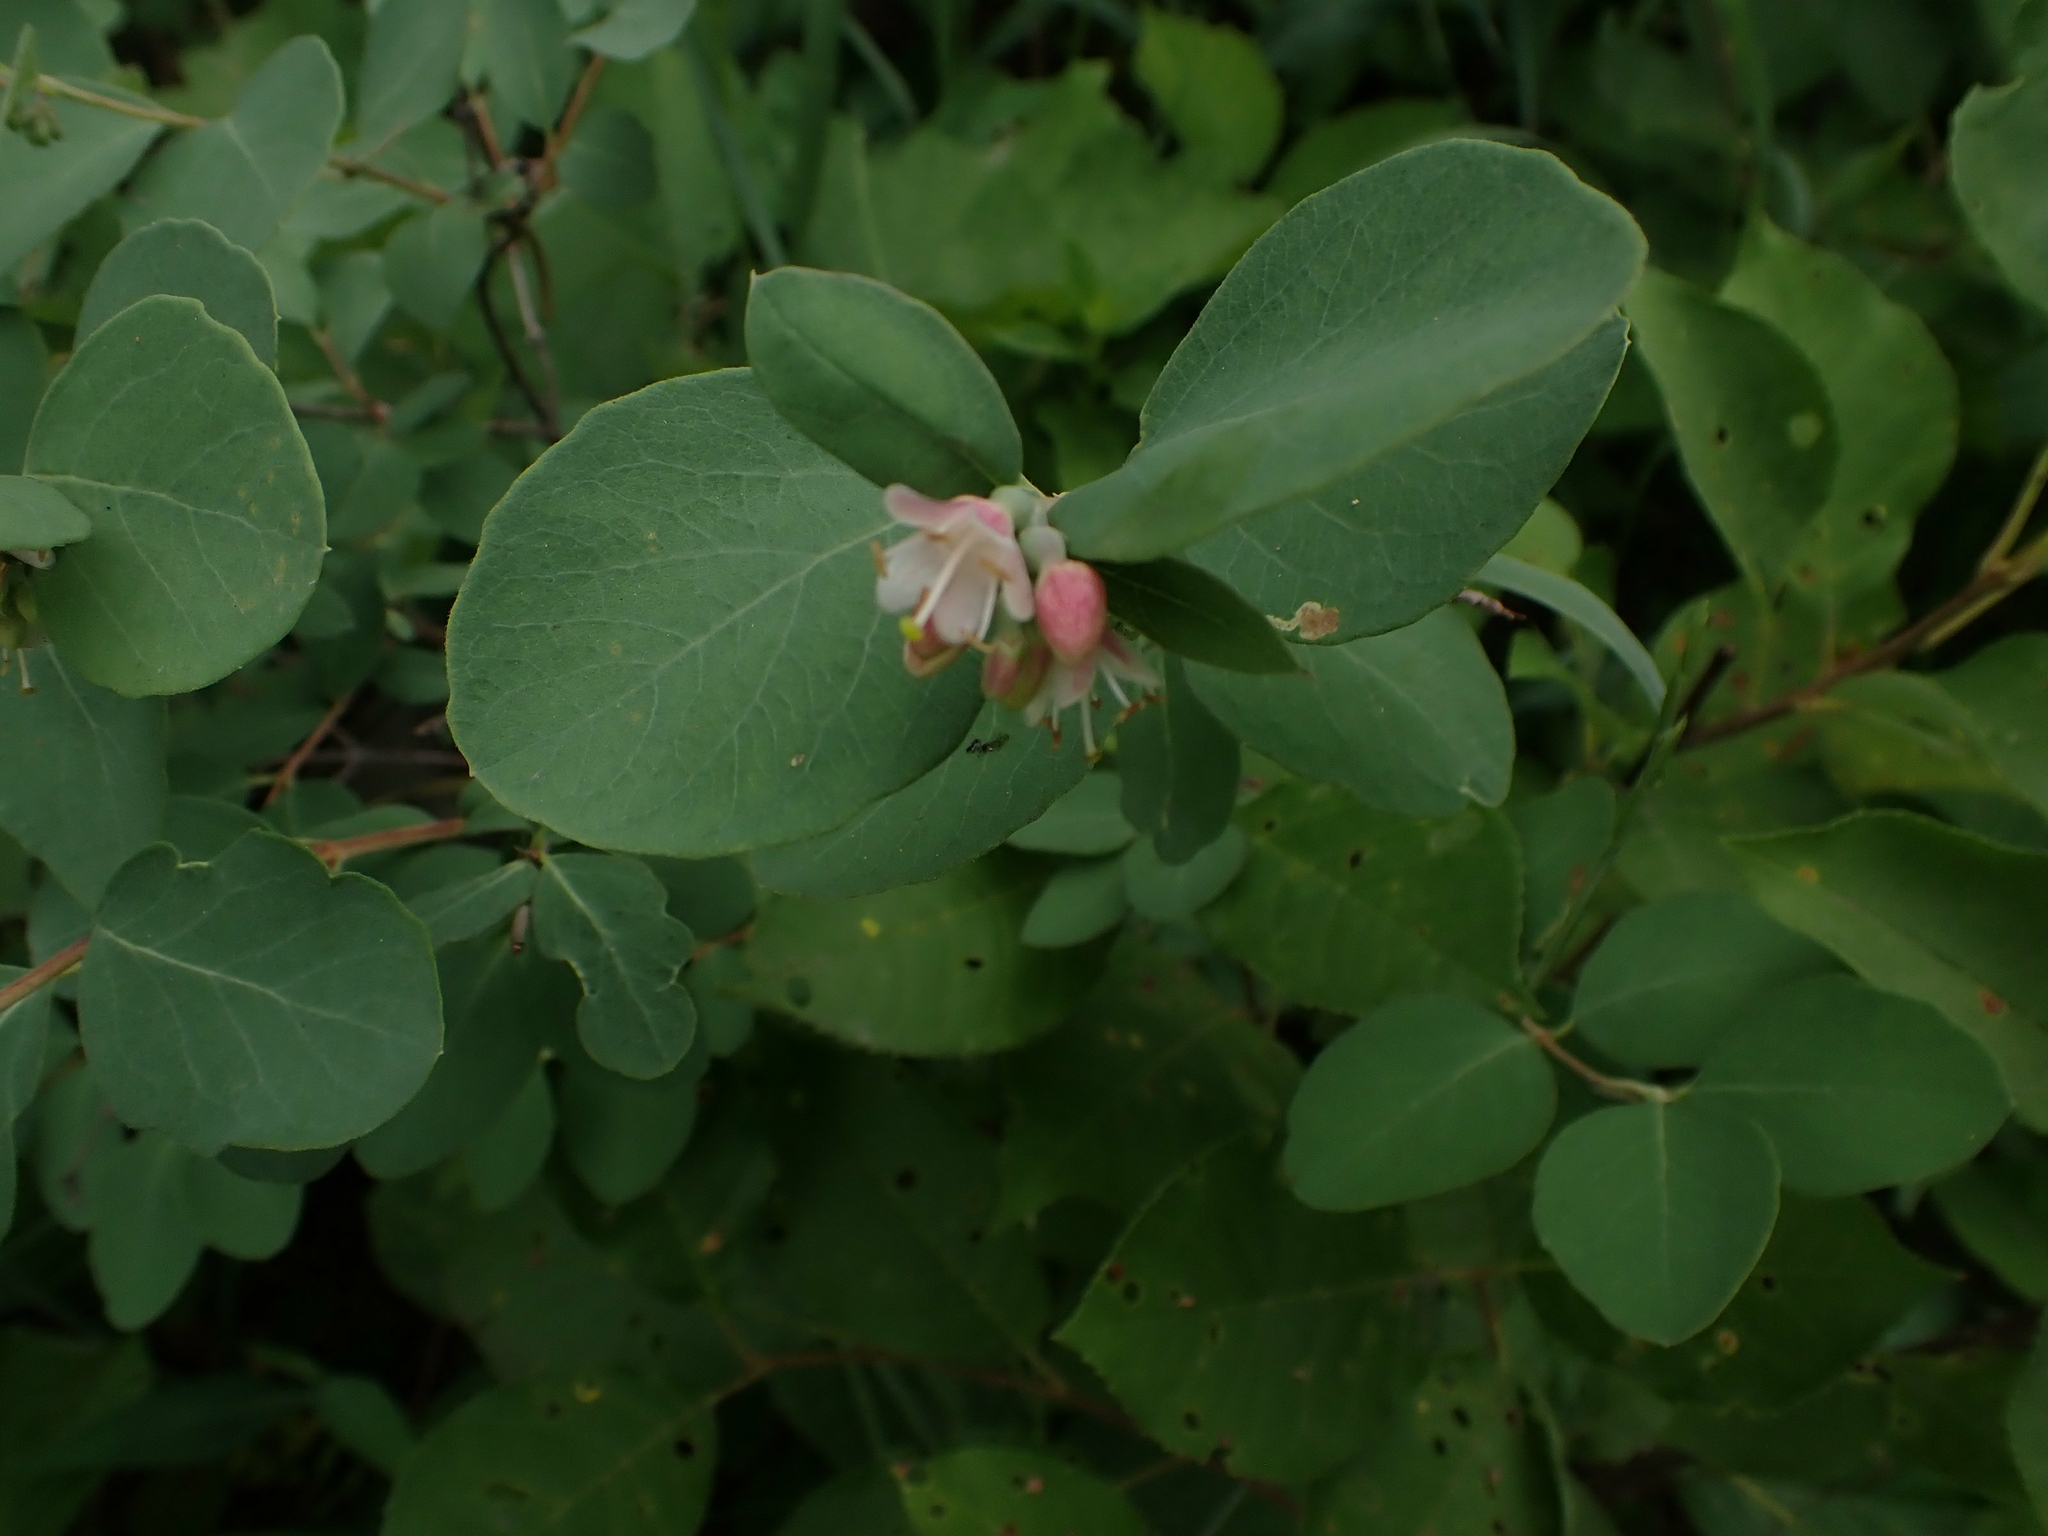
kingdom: Plantae
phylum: Tracheophyta
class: Magnoliopsida
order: Dipsacales
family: Caprifoliaceae
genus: Symphoricarpos
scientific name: Symphoricarpos occidentalis
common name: Wolfberry
